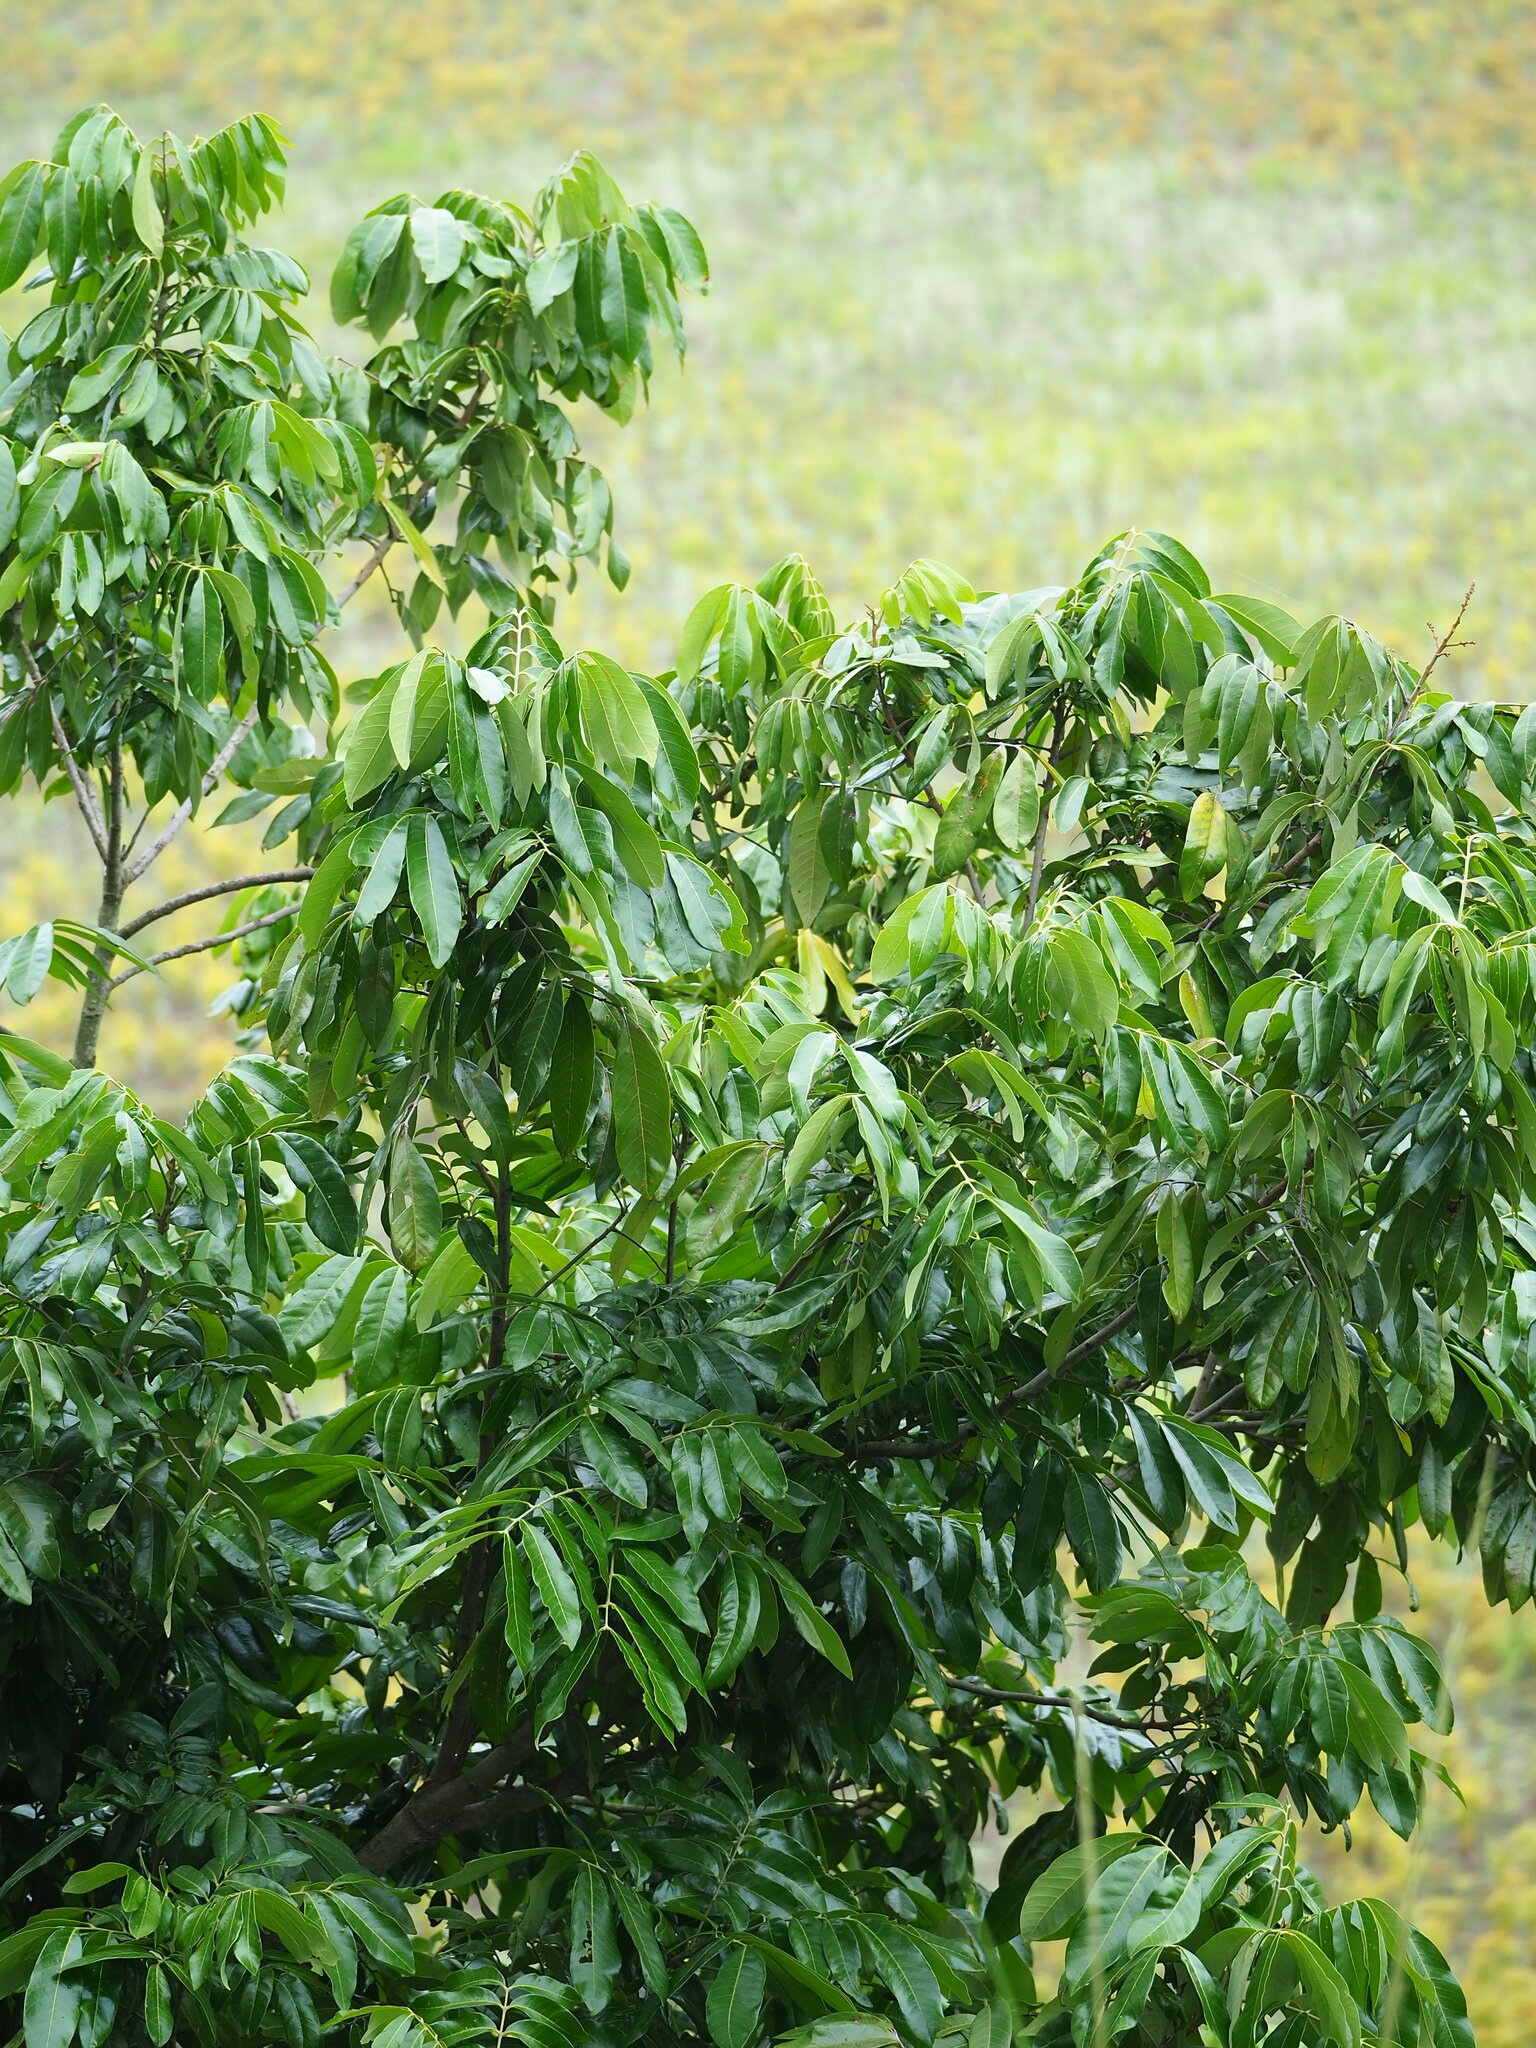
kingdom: Plantae
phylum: Tracheophyta
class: Magnoliopsida
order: Sapindales
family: Sapindaceae
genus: Dimocarpus
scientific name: Dimocarpus longan
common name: Longan
